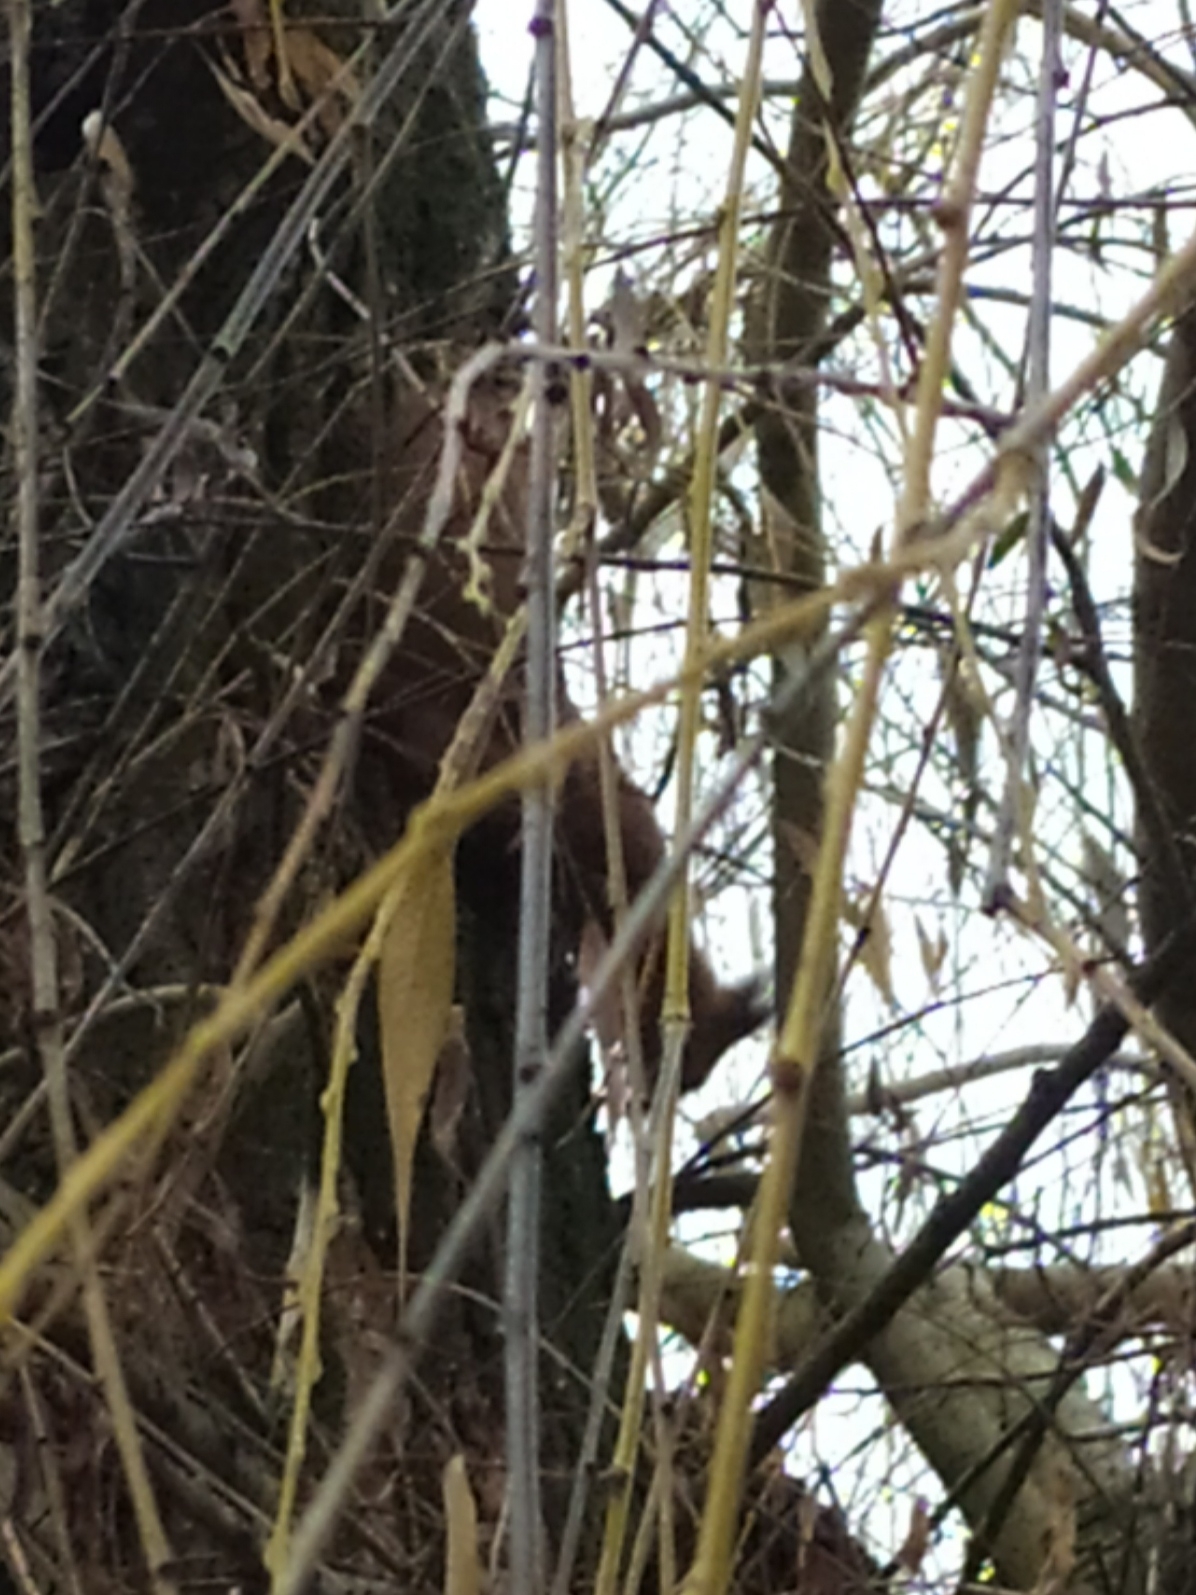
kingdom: Animalia
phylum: Chordata
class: Mammalia
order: Rodentia
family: Sciuridae
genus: Sciurus
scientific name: Sciurus vulgaris
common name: Eurasian red squirrel
